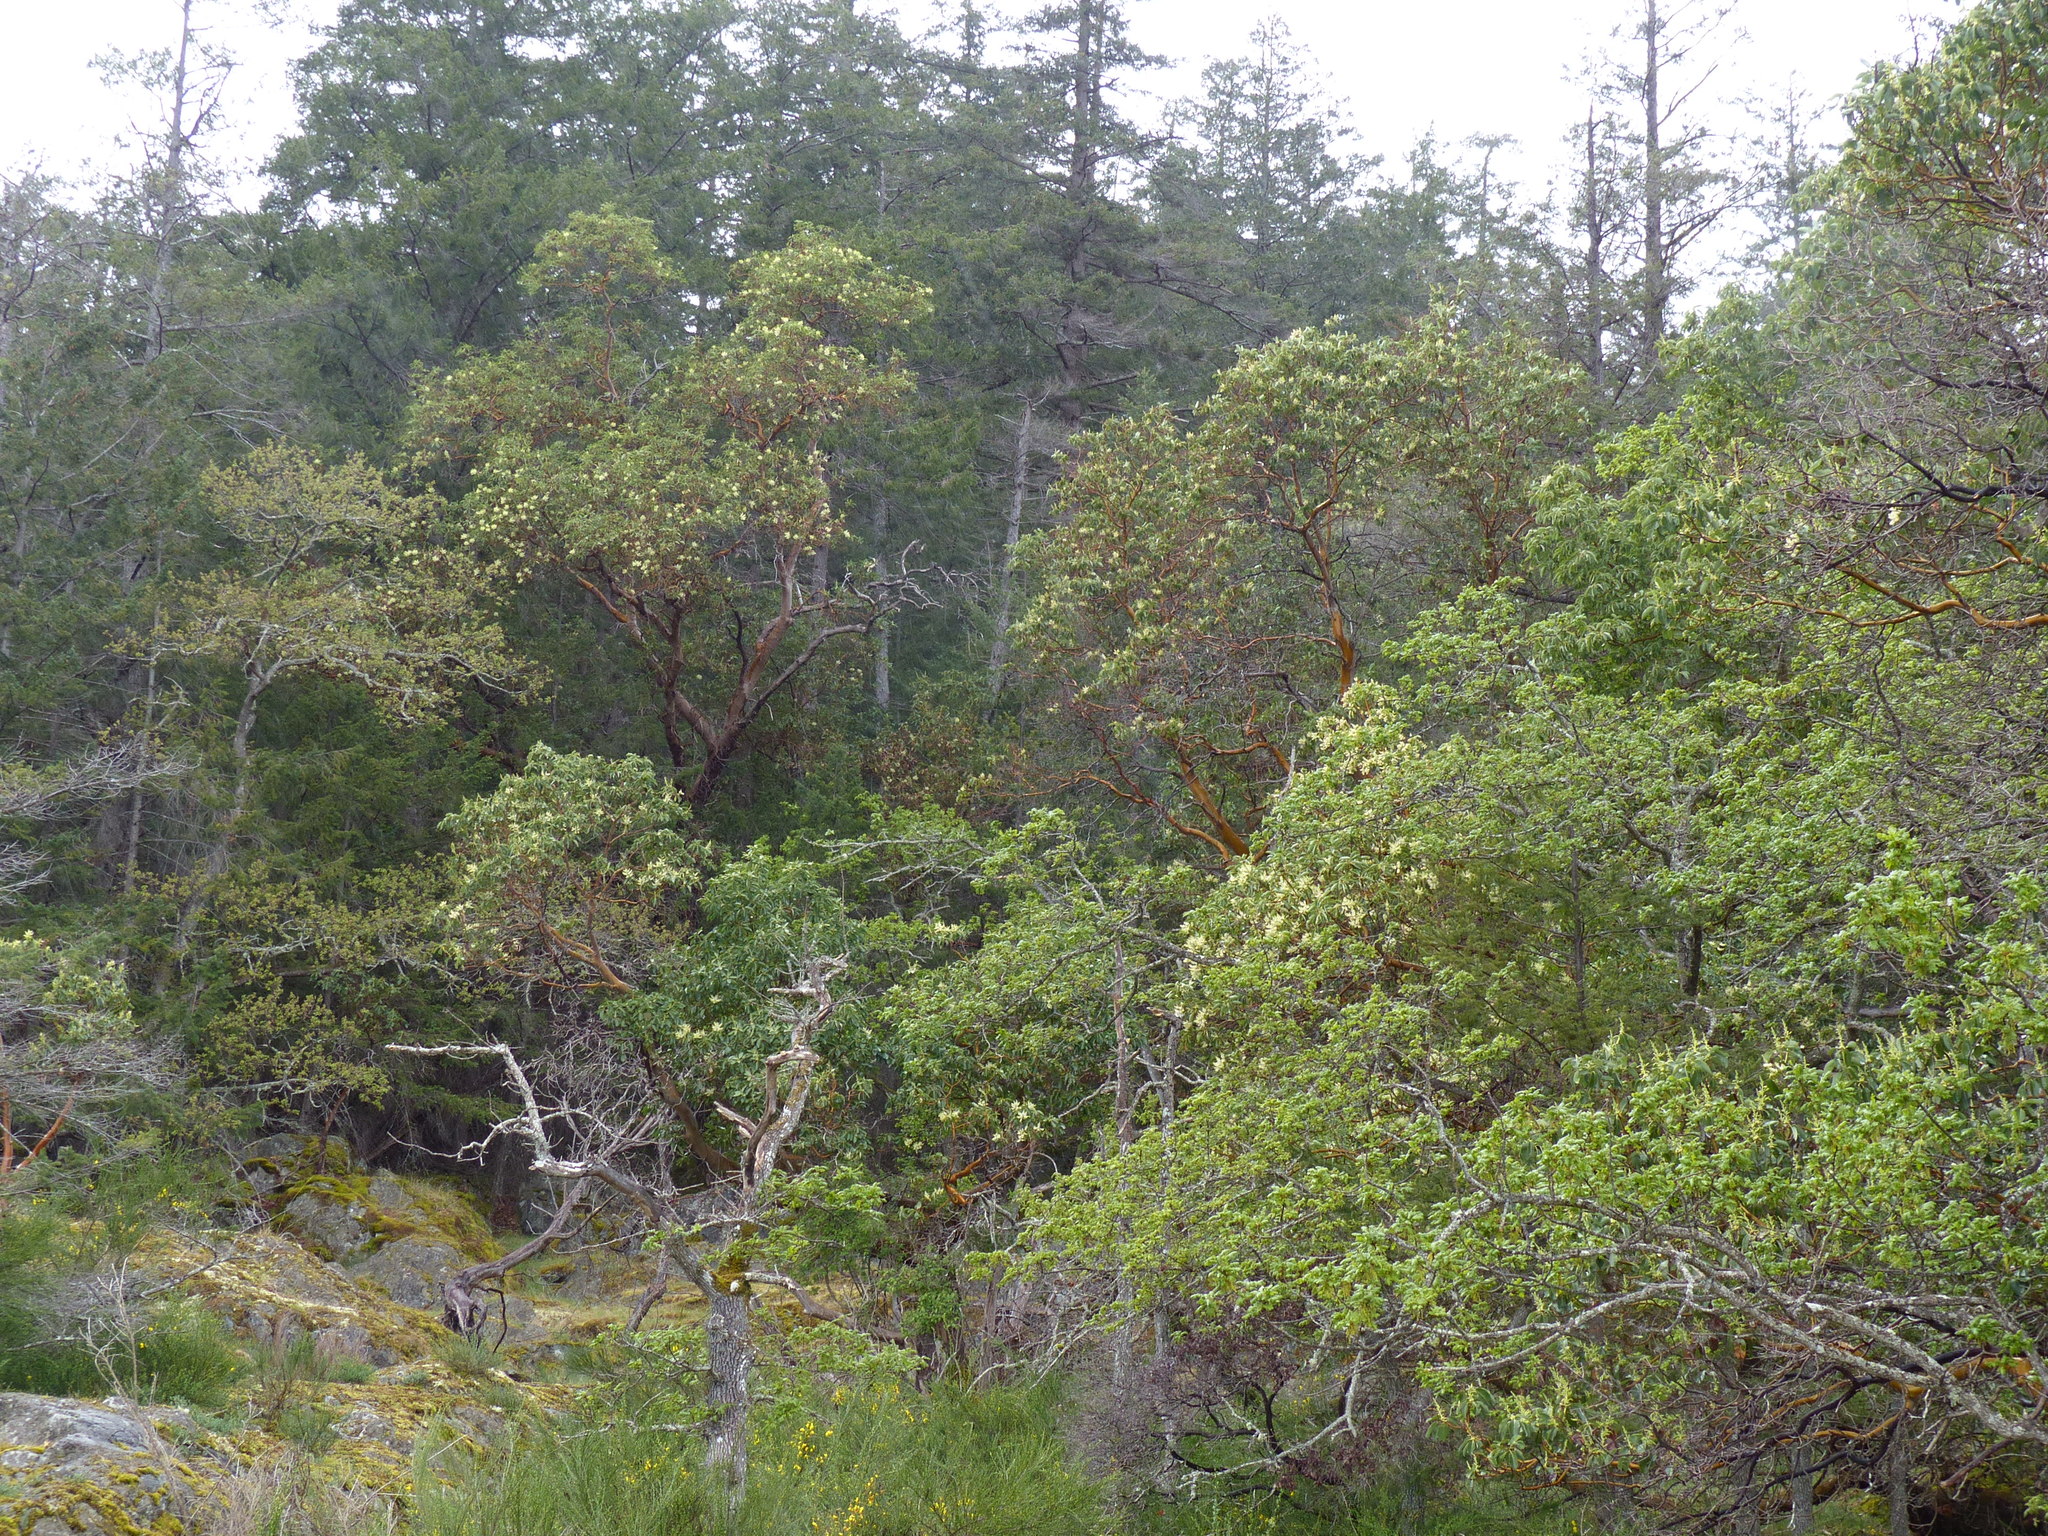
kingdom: Plantae
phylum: Tracheophyta
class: Magnoliopsida
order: Ericales
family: Ericaceae
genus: Arbutus
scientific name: Arbutus menziesii
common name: Pacific madrone
